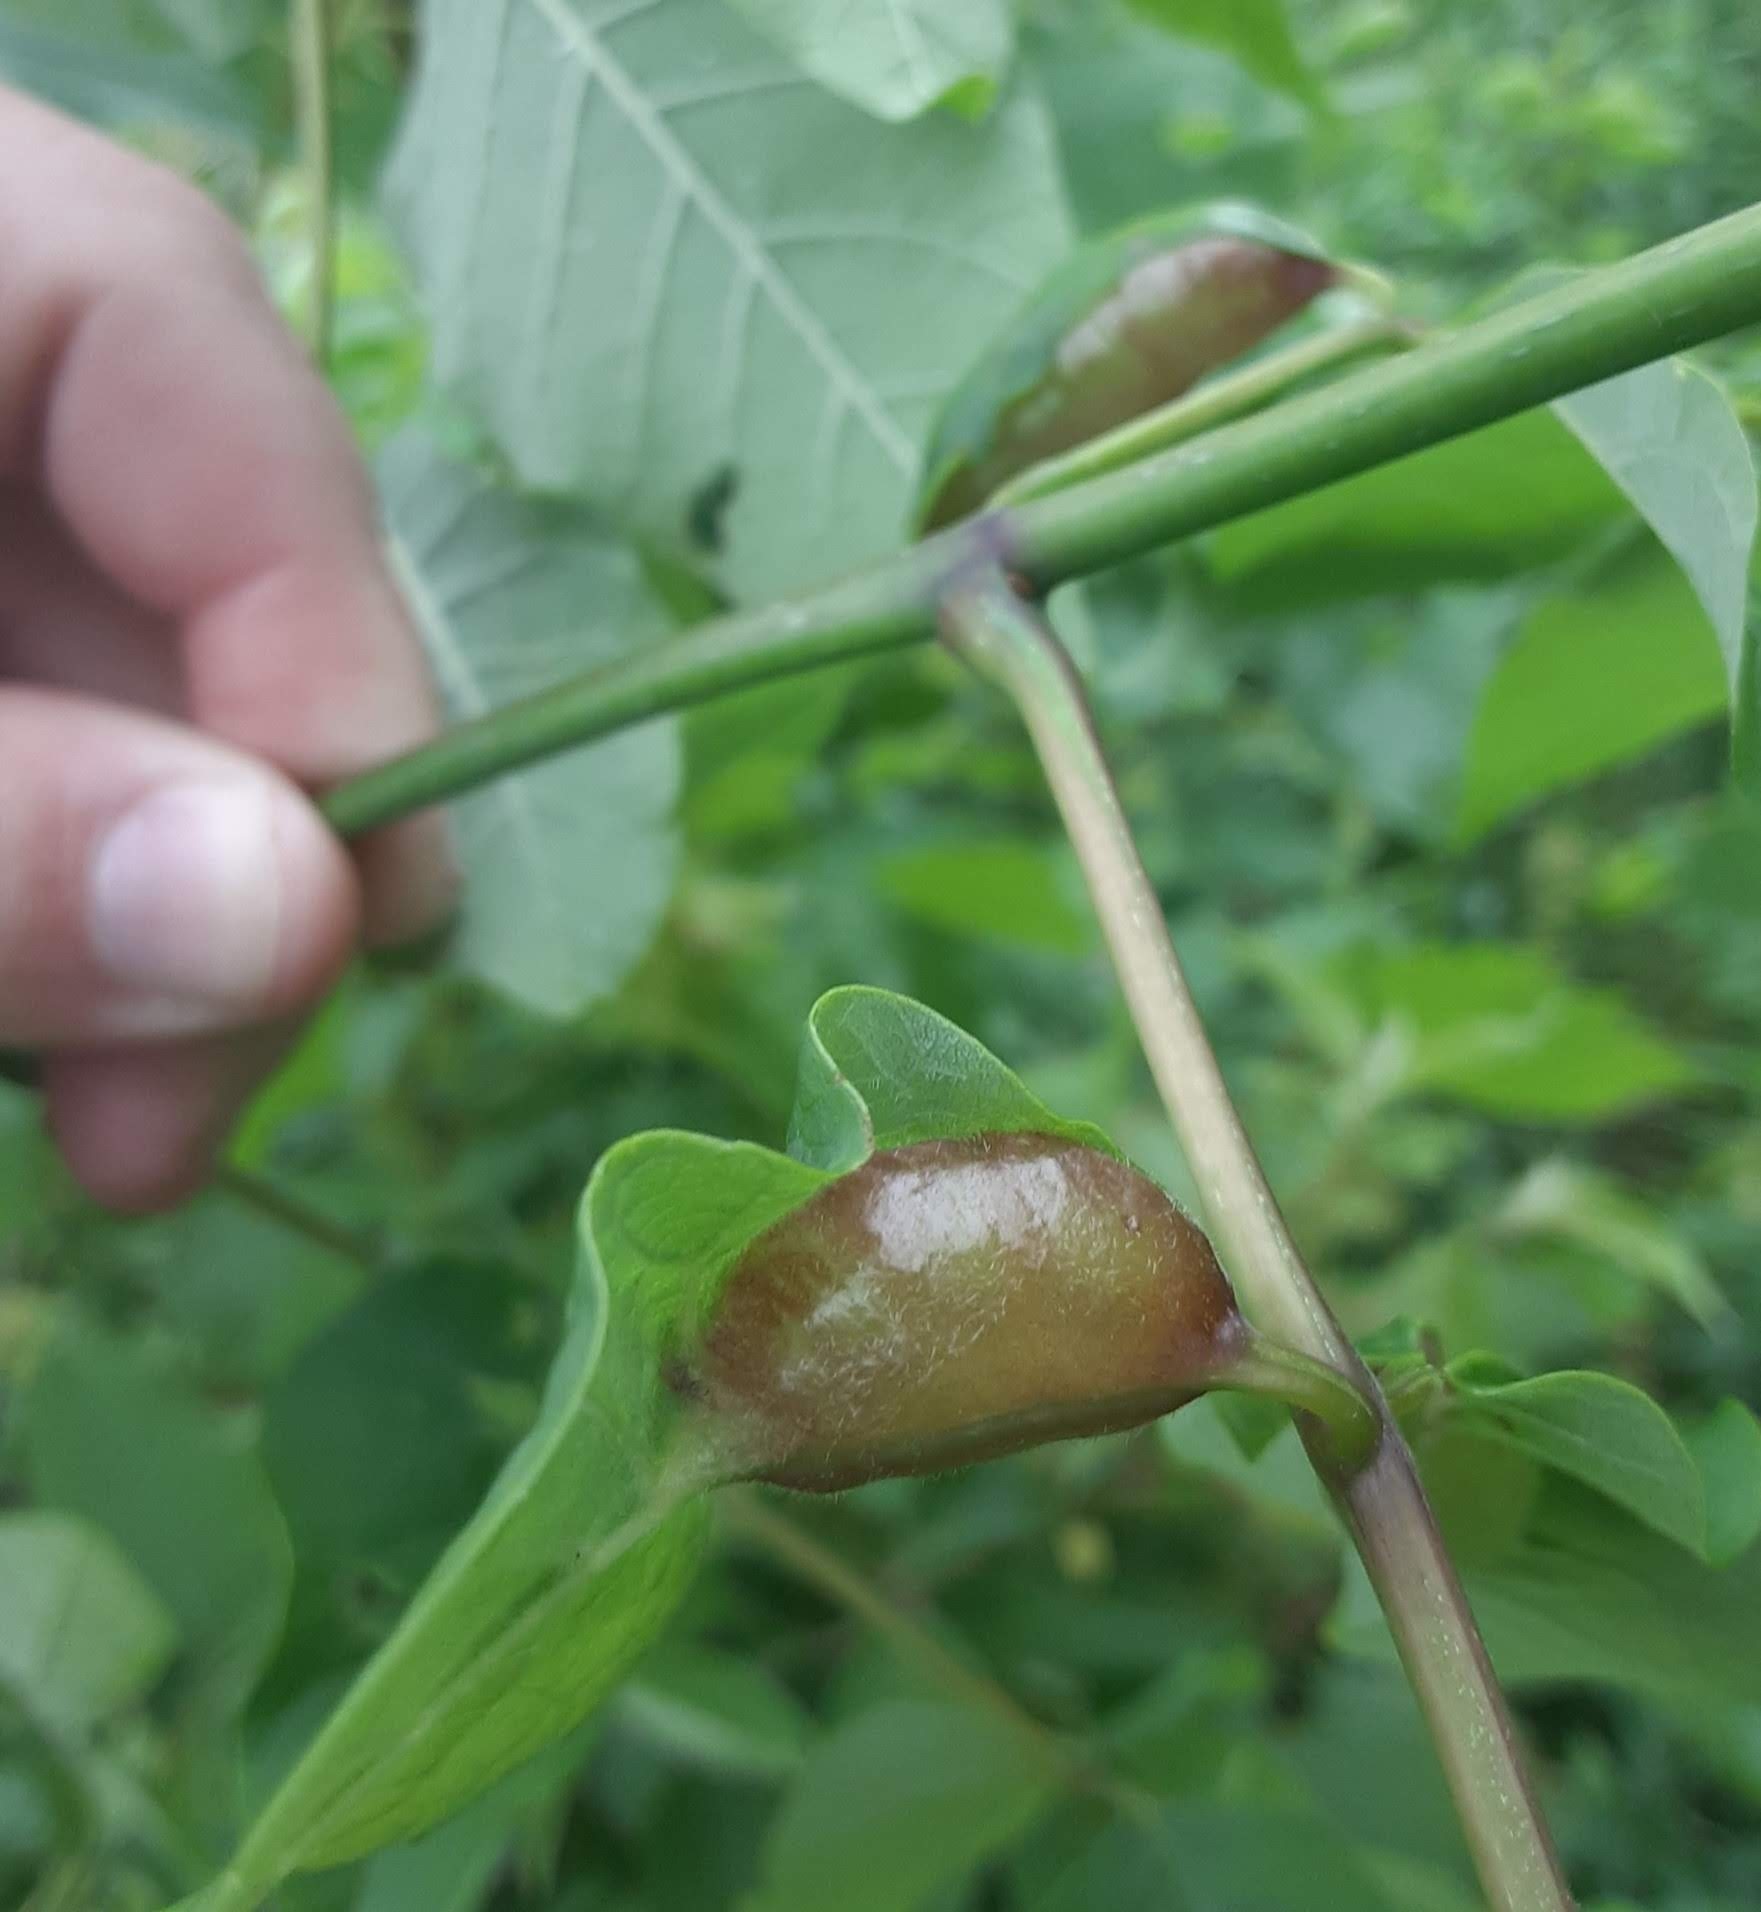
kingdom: Animalia
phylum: Arthropoda
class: Insecta
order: Diptera
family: Cecidomyiidae
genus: Dasineura
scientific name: Dasineura tumidosae
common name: Ash petiole gall midge
